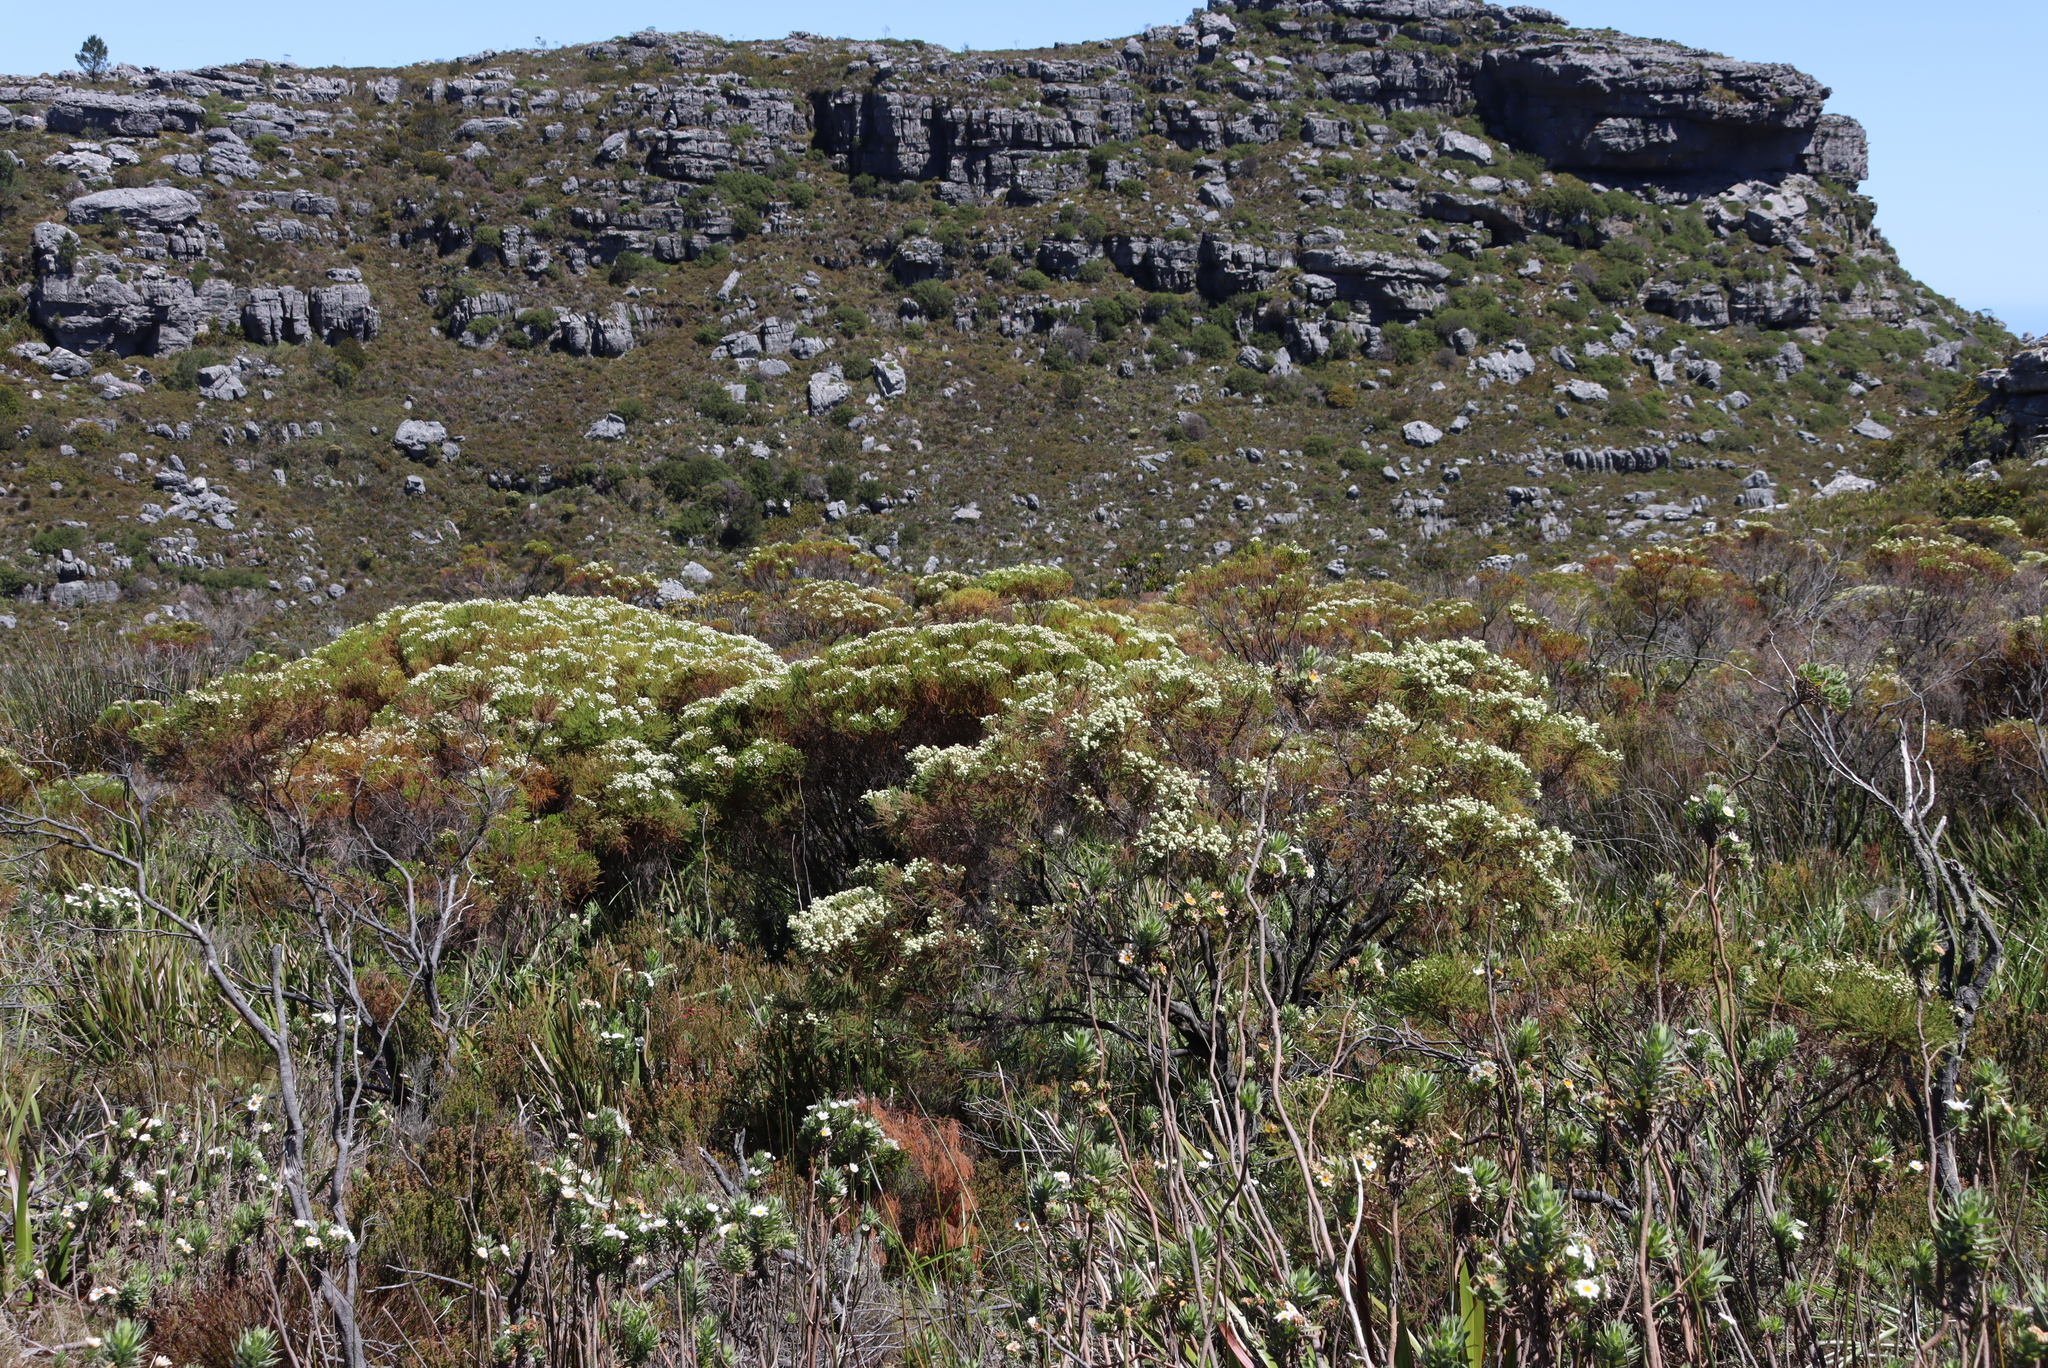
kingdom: Plantae
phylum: Tracheophyta
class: Magnoliopsida
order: Bruniales
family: Bruniaceae
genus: Berzelia
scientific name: Berzelia lanuginosa
